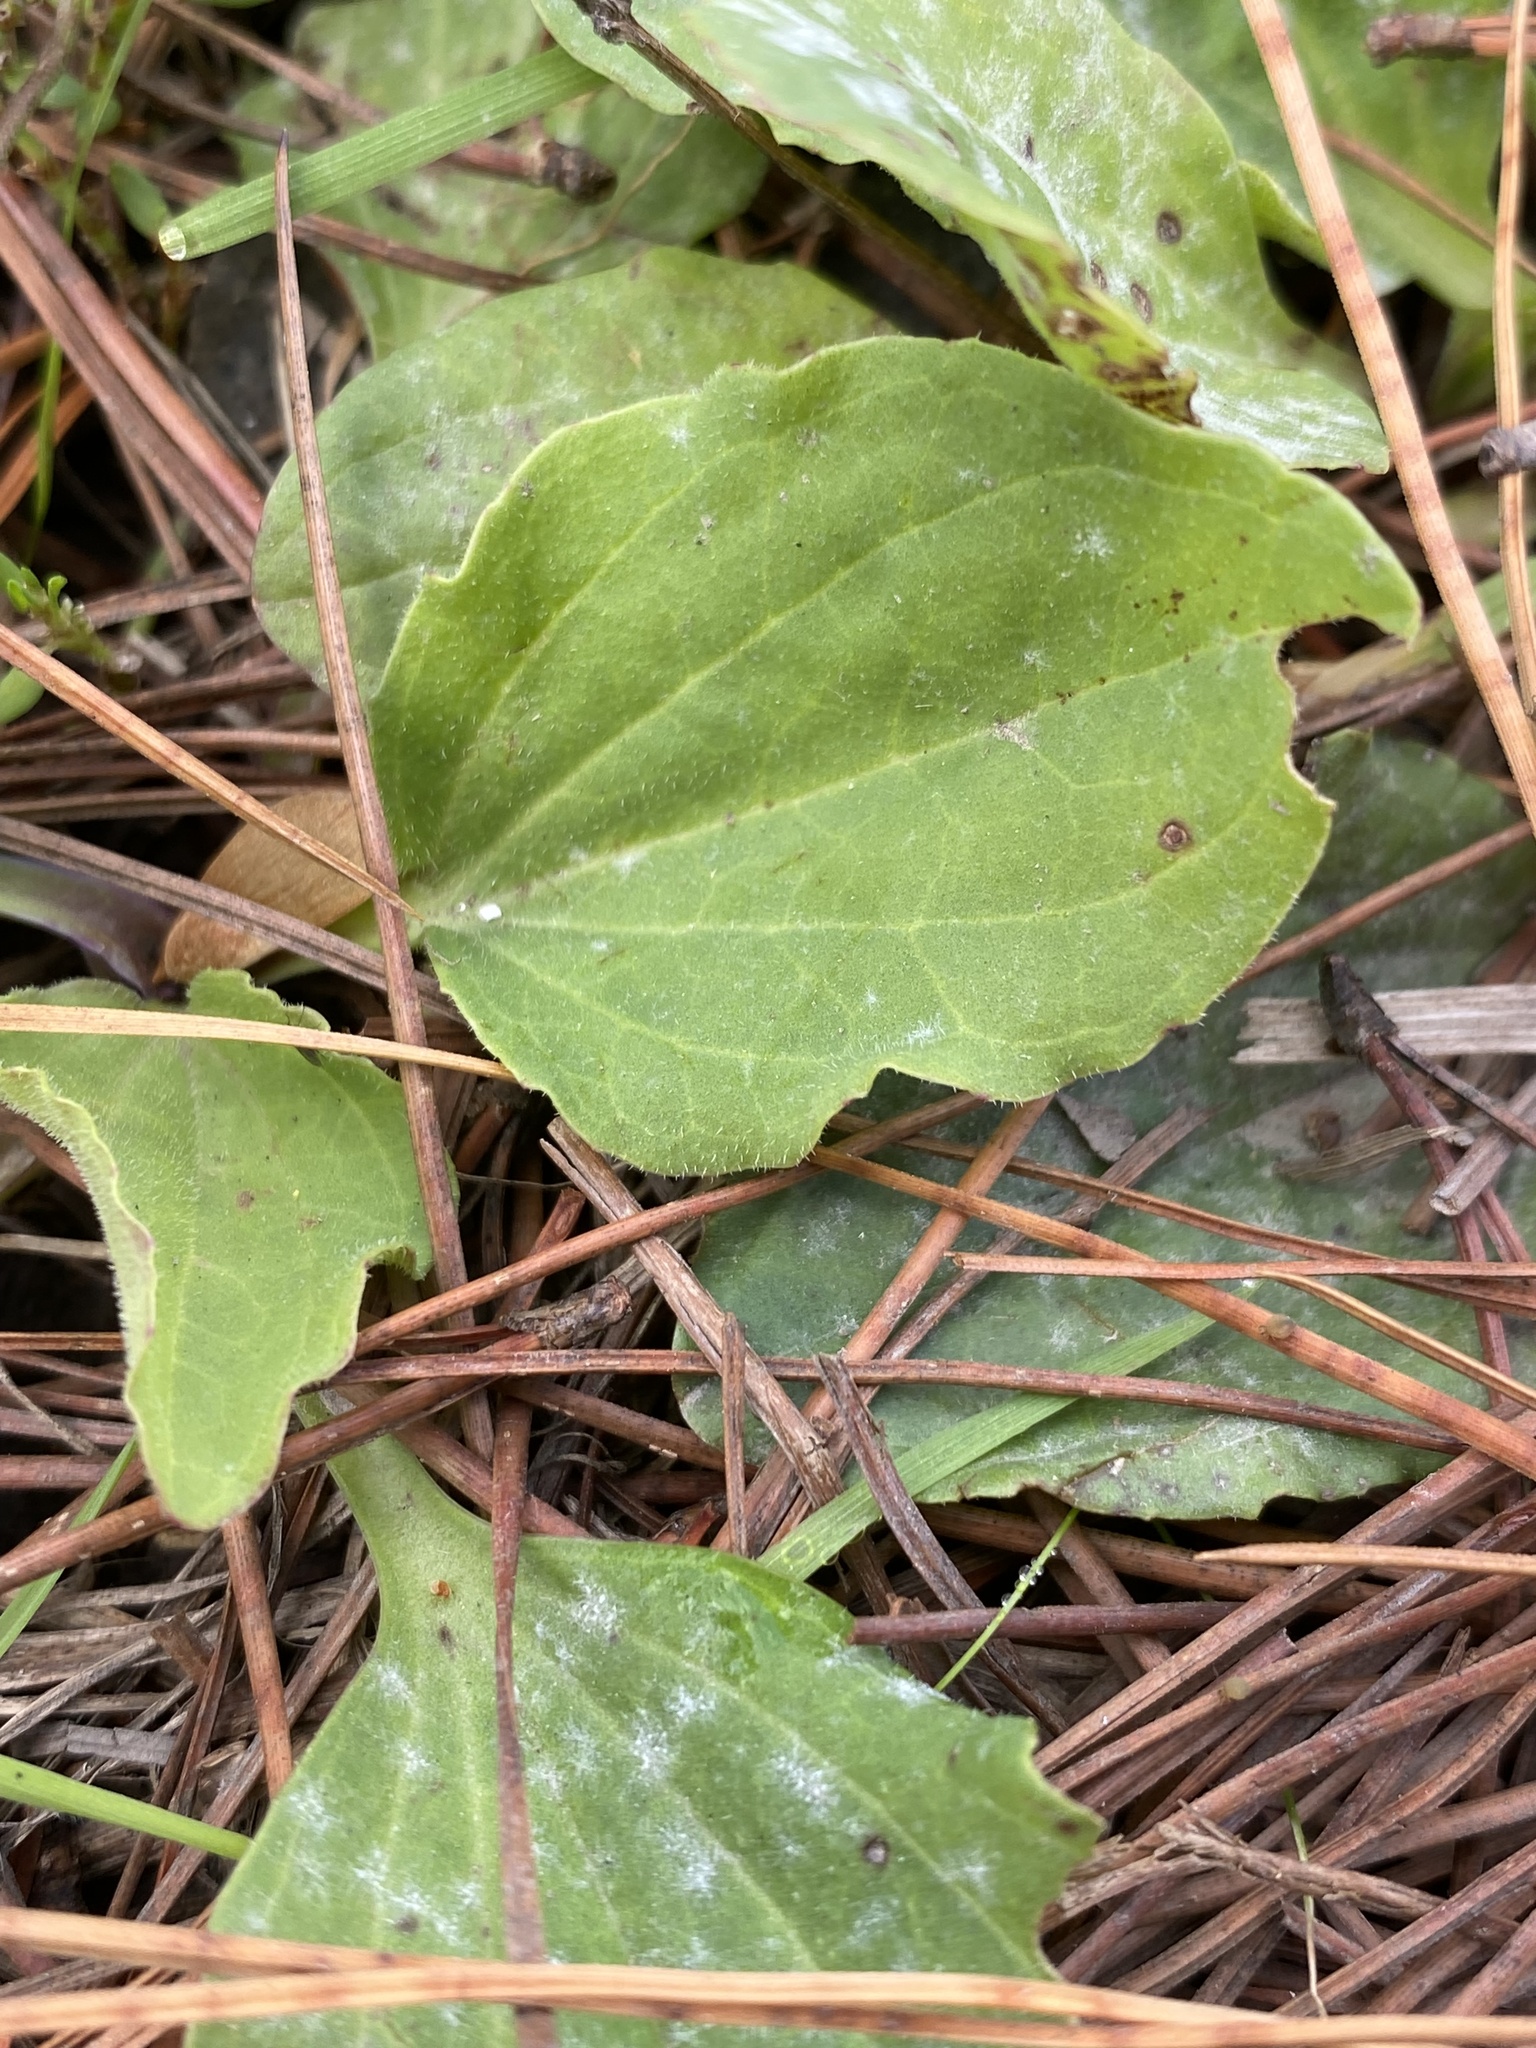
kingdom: Plantae
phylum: Tracheophyta
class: Magnoliopsida
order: Lamiales
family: Plantaginaceae
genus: Plantago
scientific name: Plantago major
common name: Common plantain
